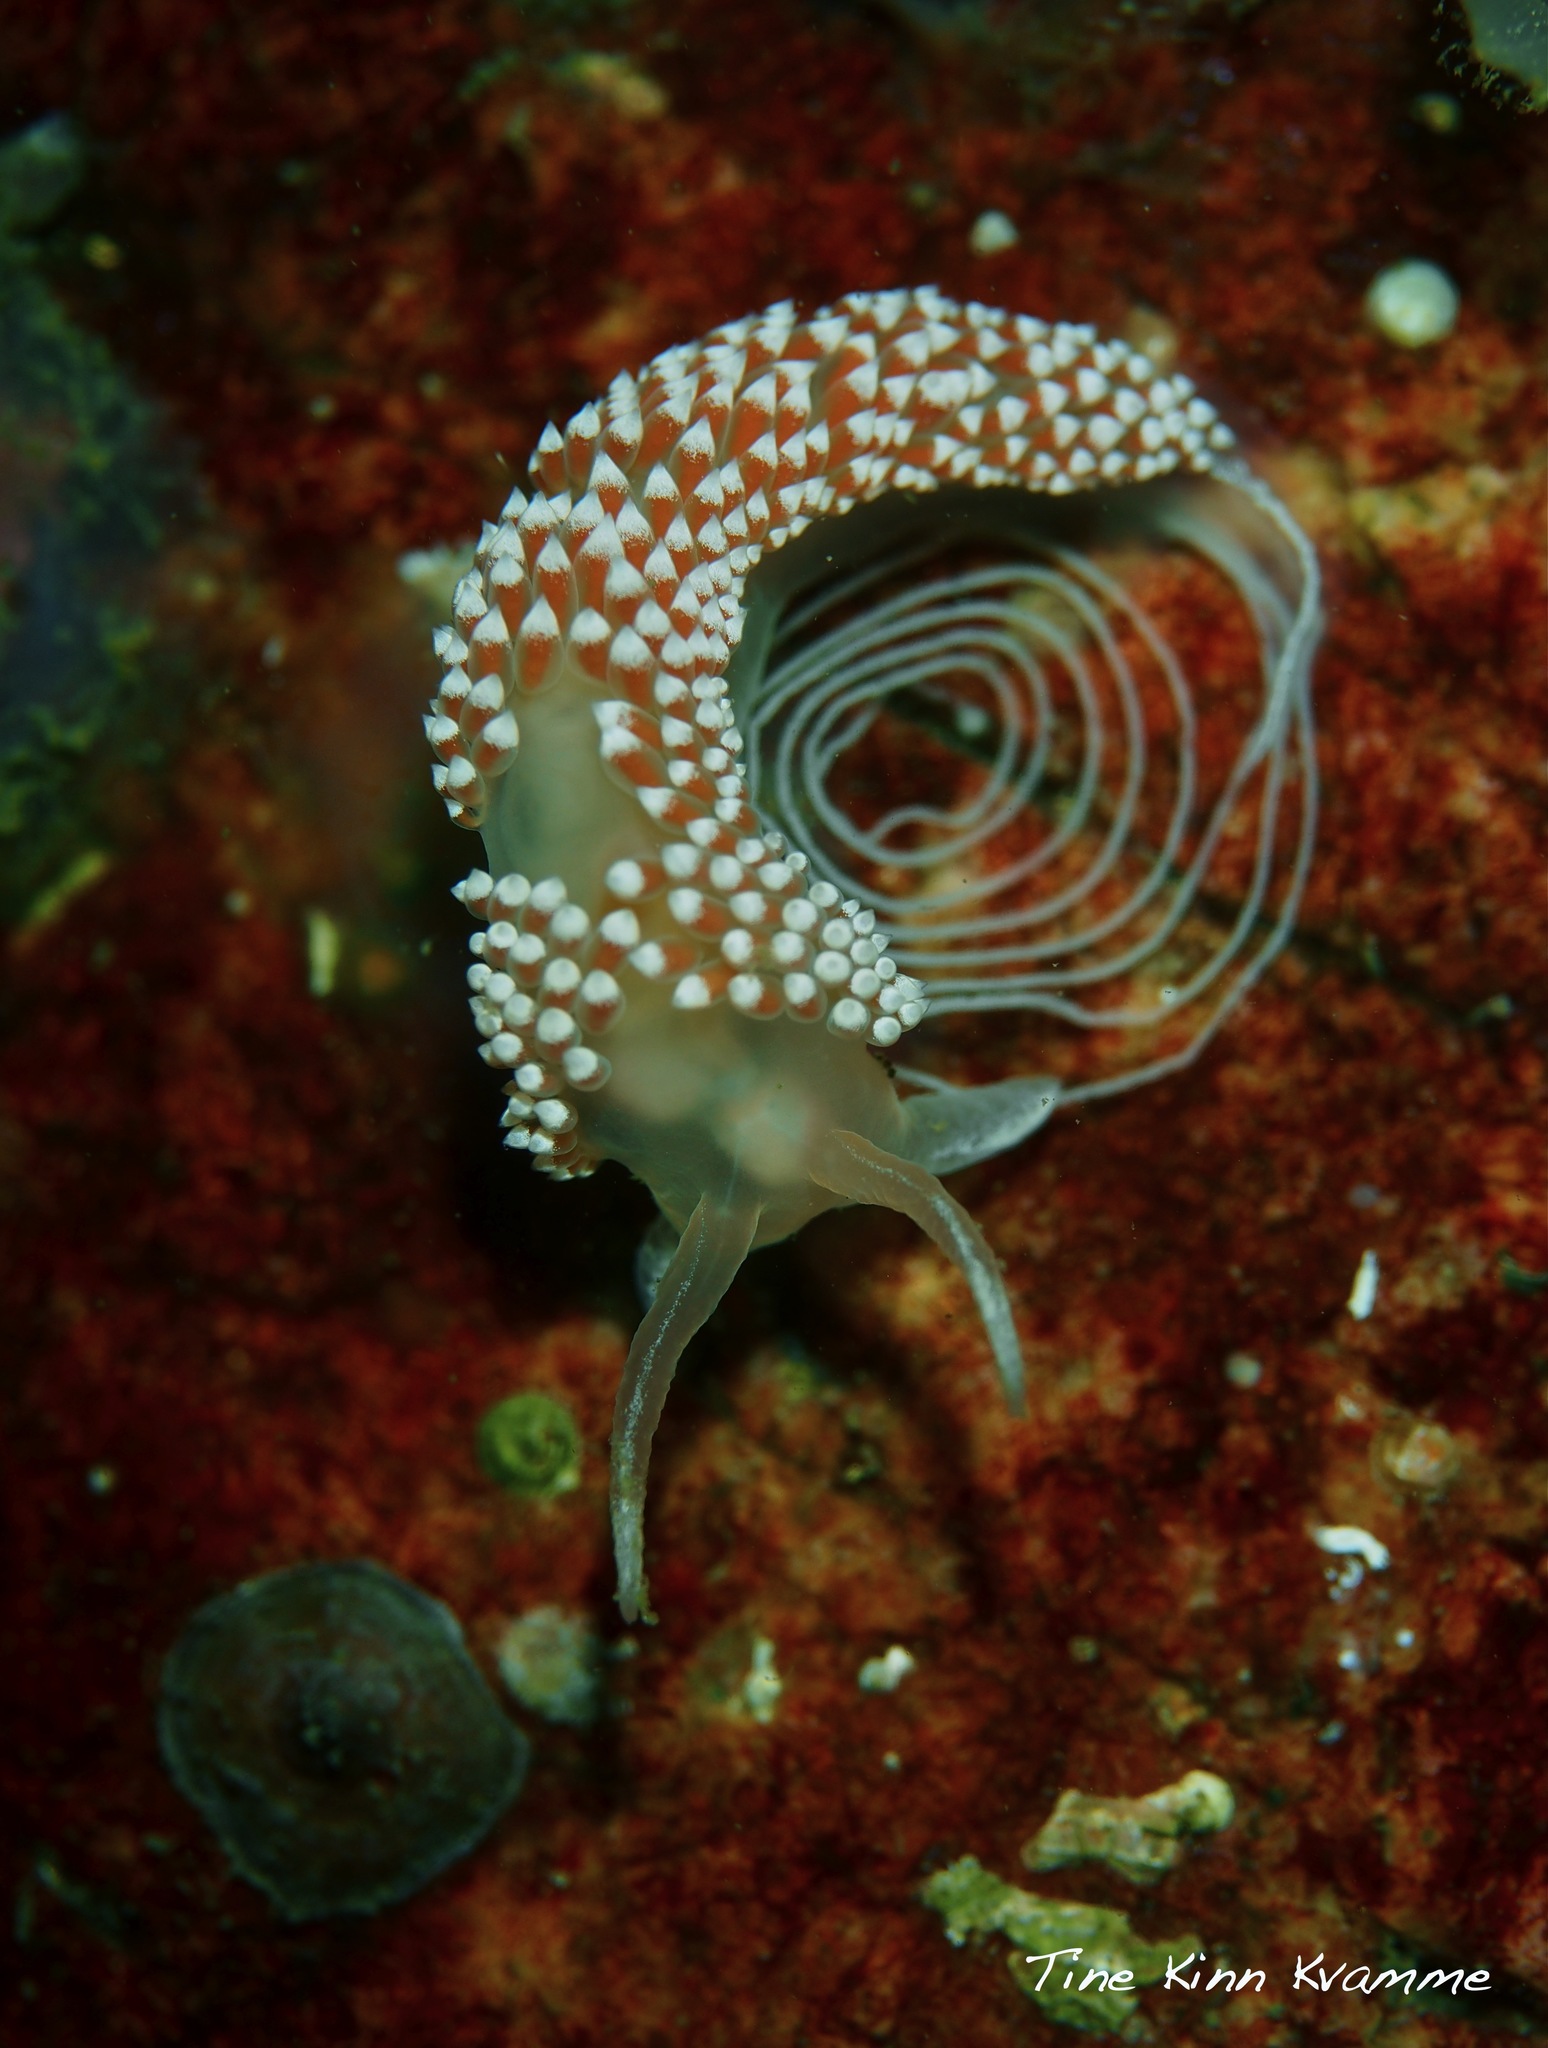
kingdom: Animalia
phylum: Mollusca
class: Gastropoda
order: Nudibranchia
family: Coryphellidae
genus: Coryphella
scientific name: Coryphella verrucosa
